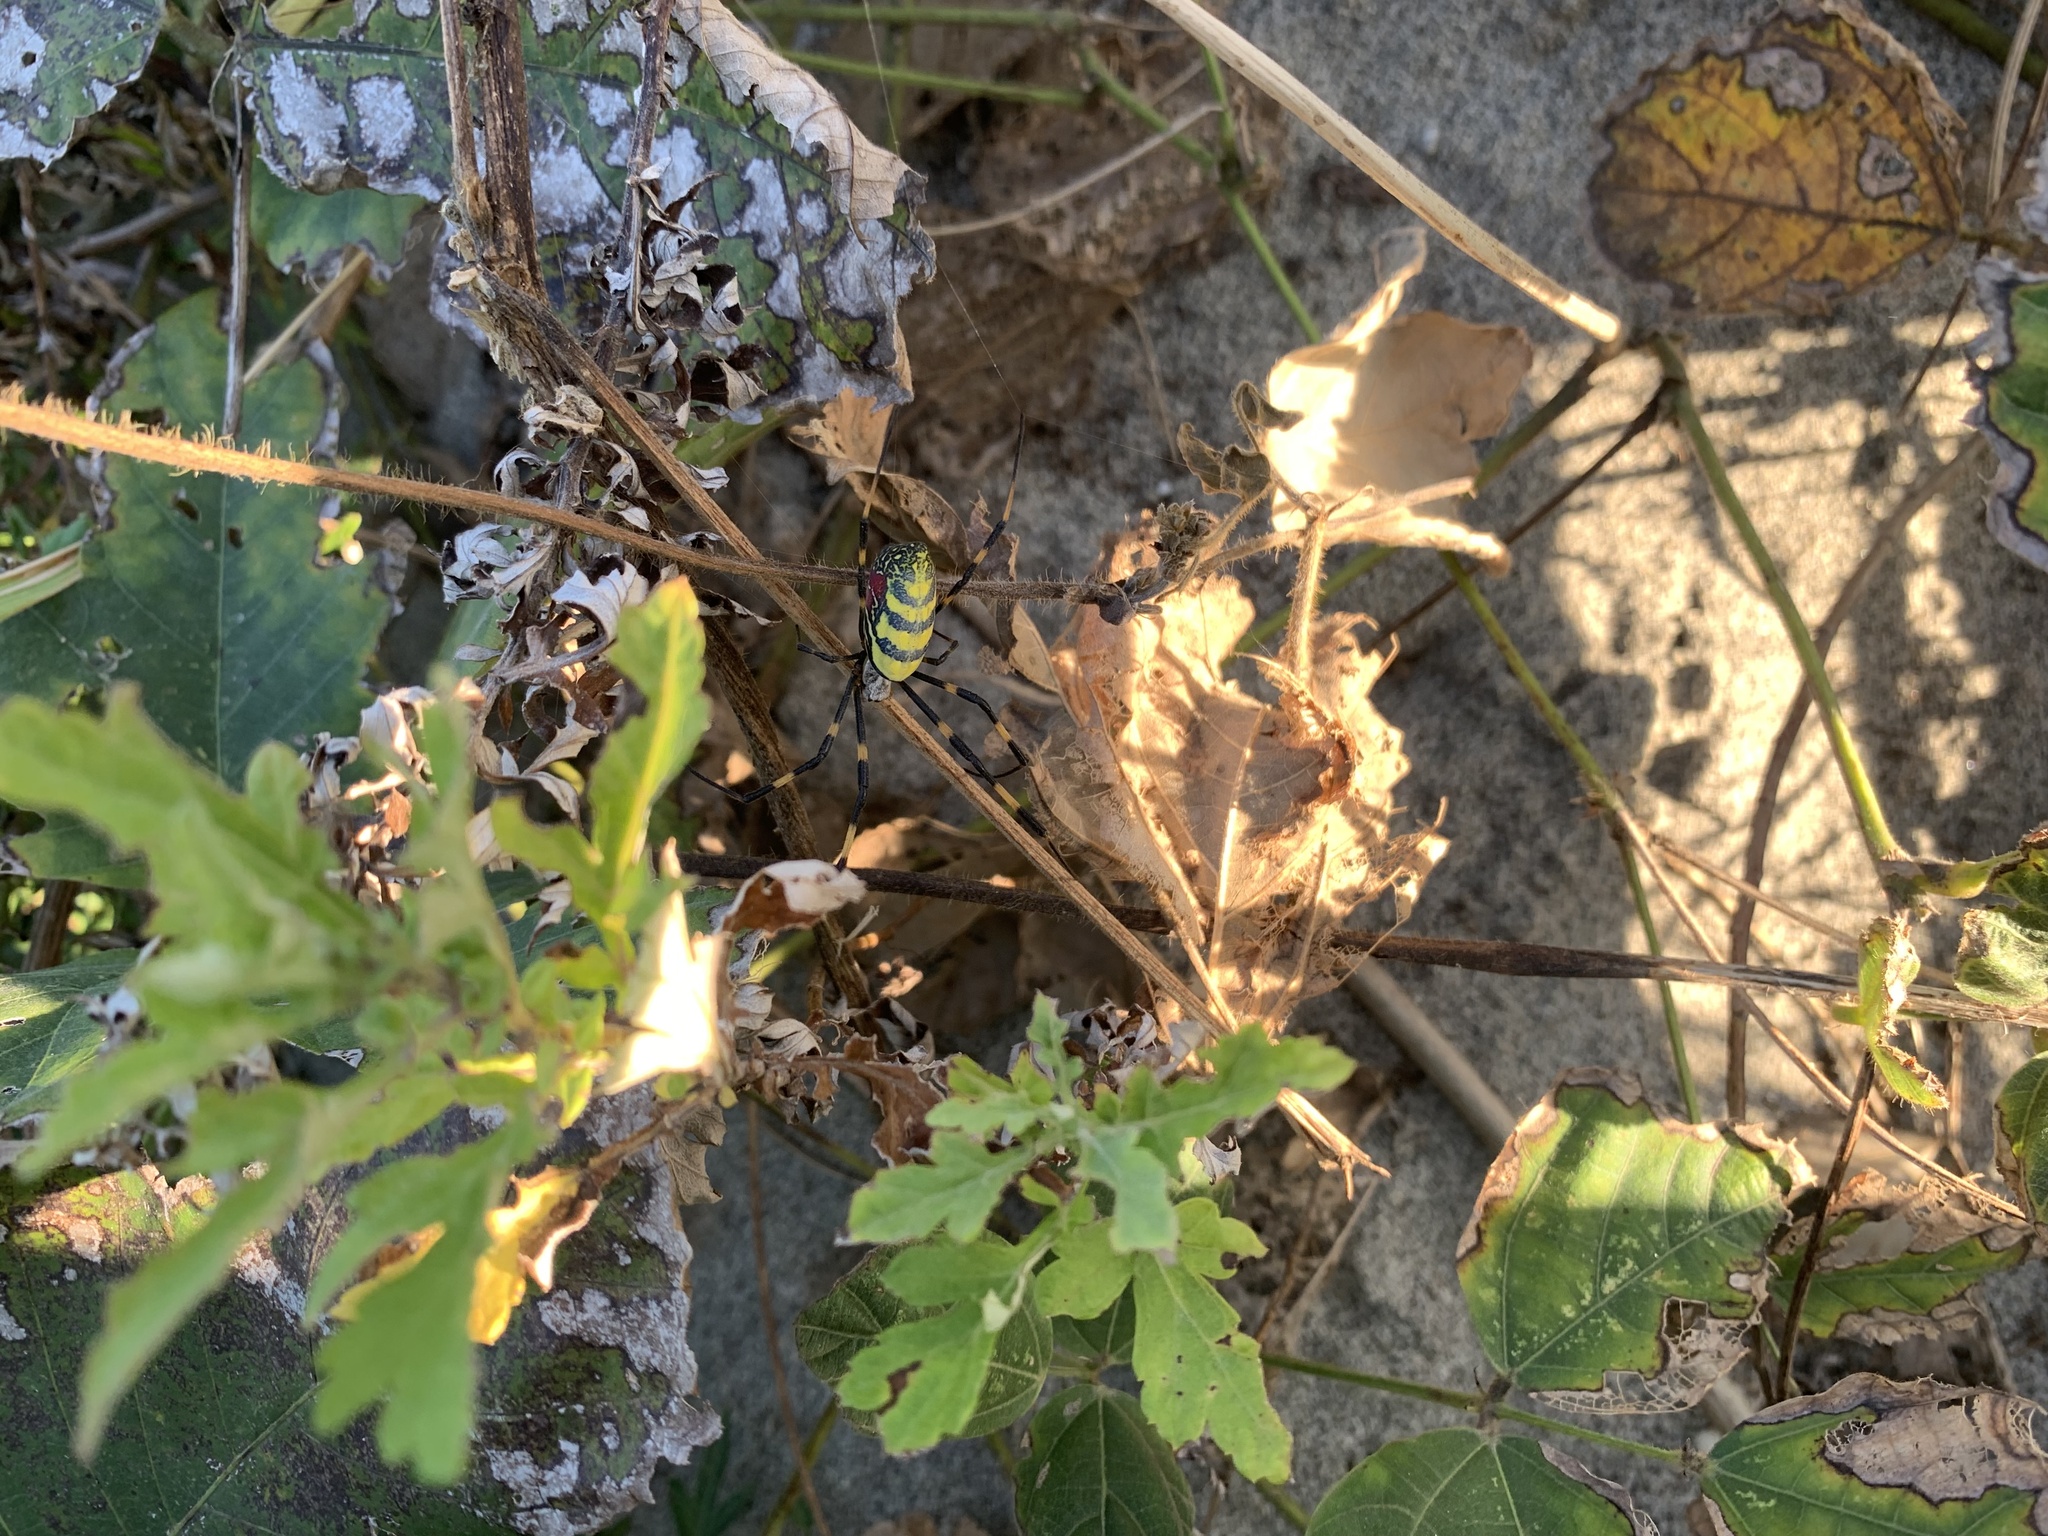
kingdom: Animalia
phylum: Arthropoda
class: Arachnida
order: Araneae
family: Araneidae
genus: Trichonephila
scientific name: Trichonephila clavata
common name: Jorō spider
